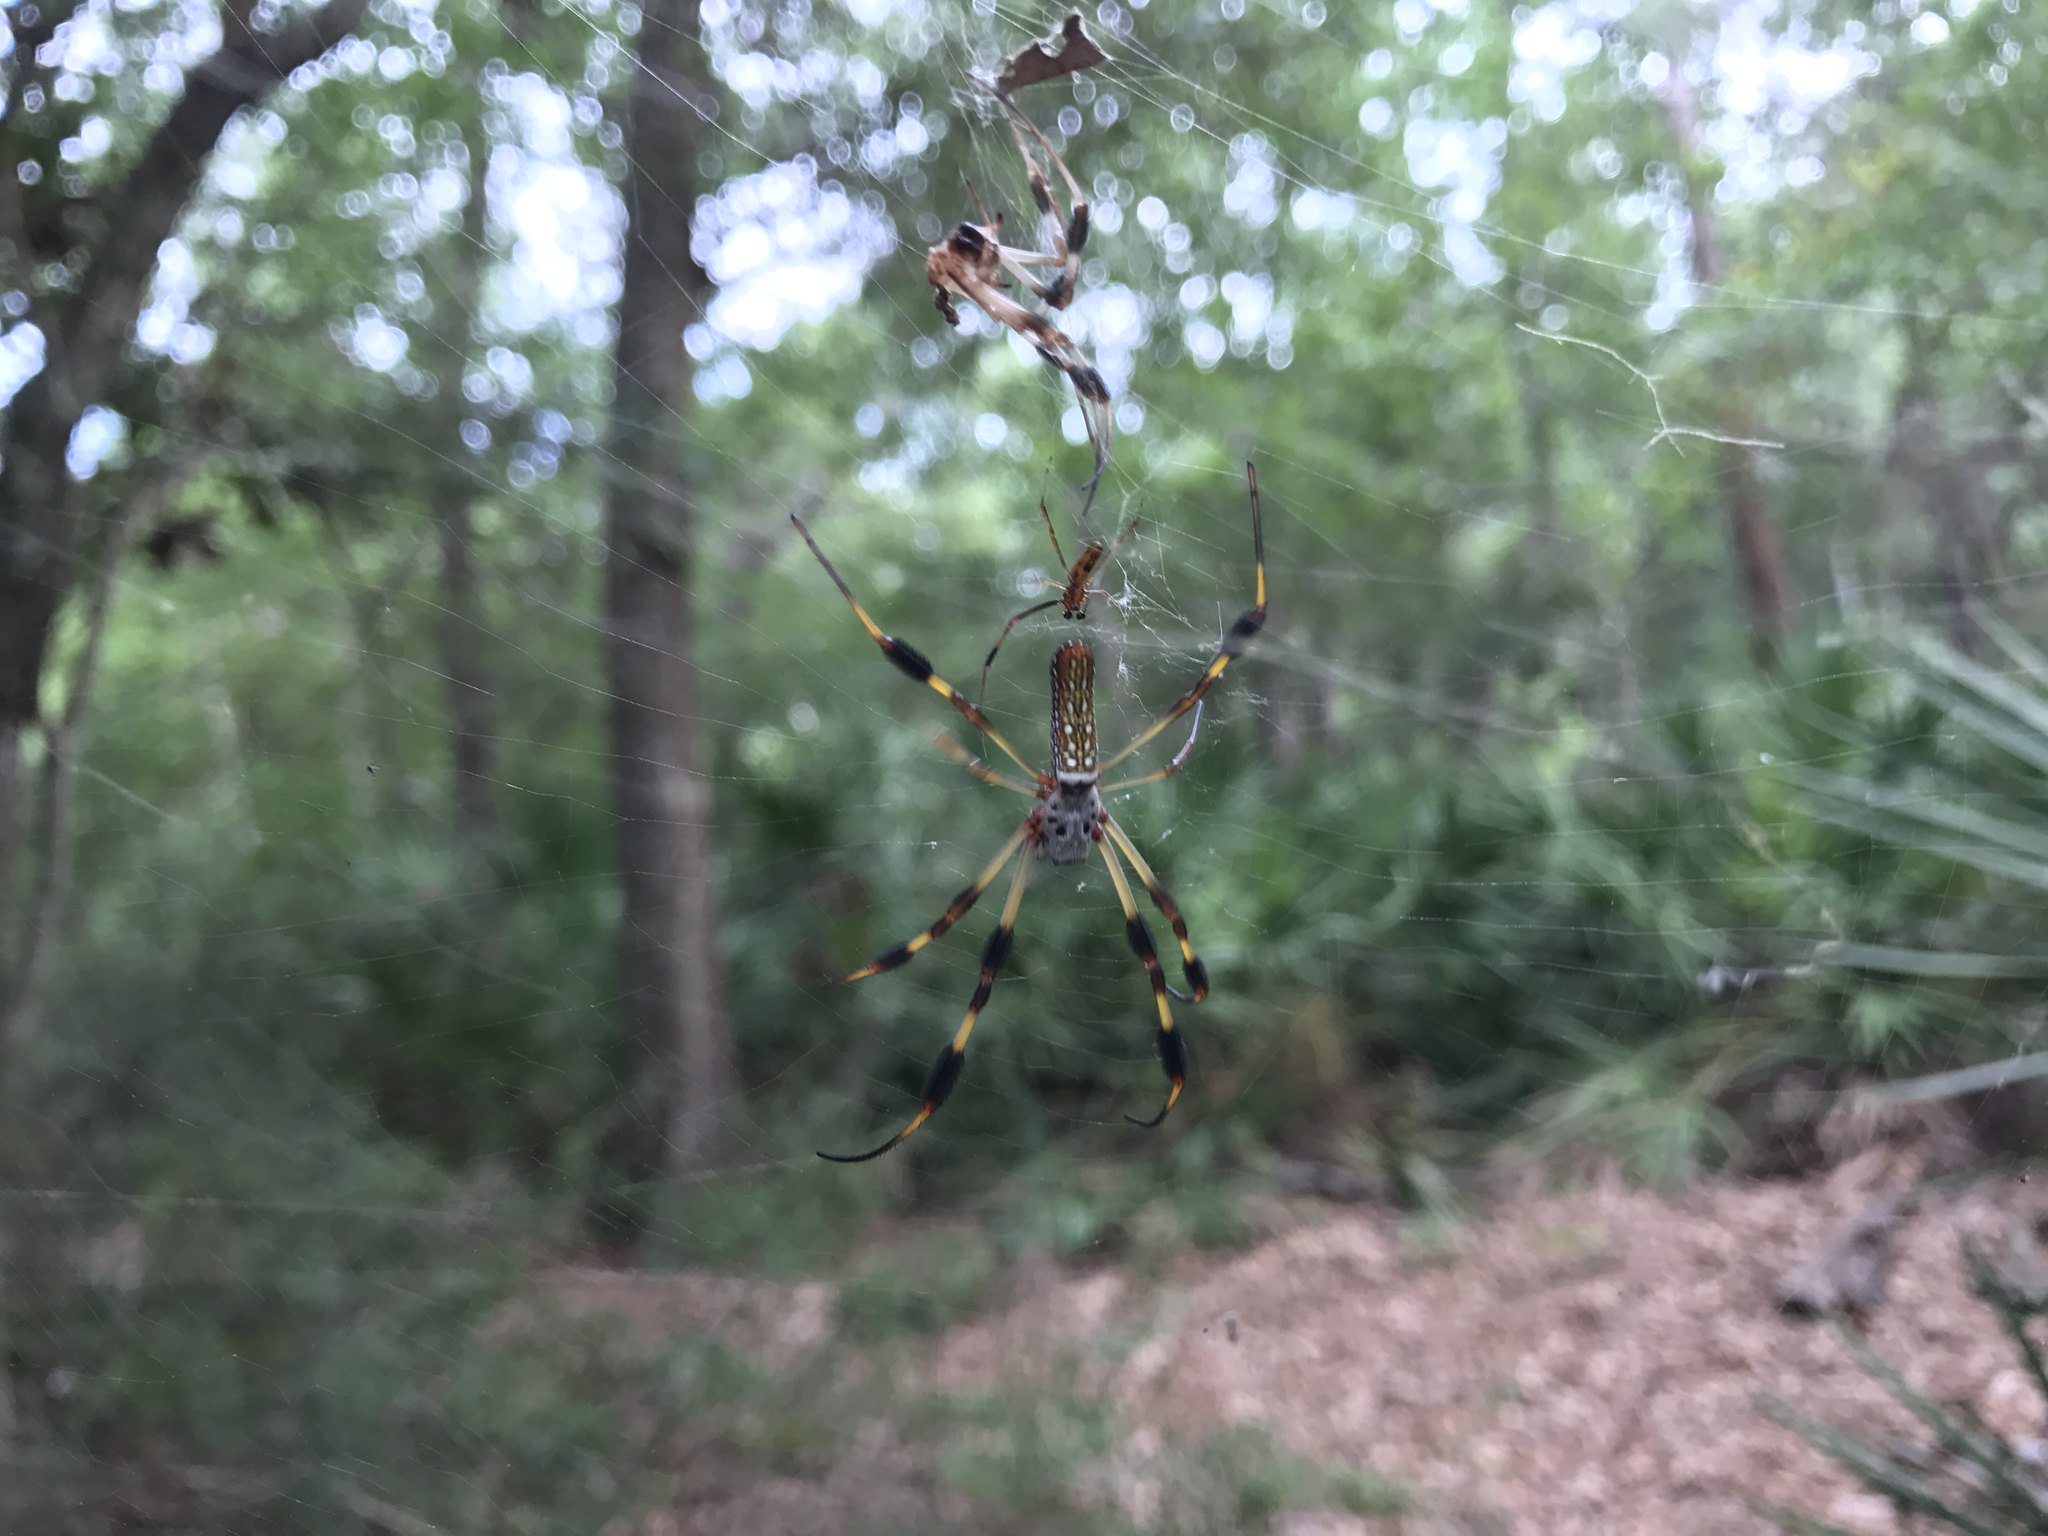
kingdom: Animalia
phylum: Arthropoda
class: Arachnida
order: Araneae
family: Araneidae
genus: Trichonephila
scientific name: Trichonephila clavipes
